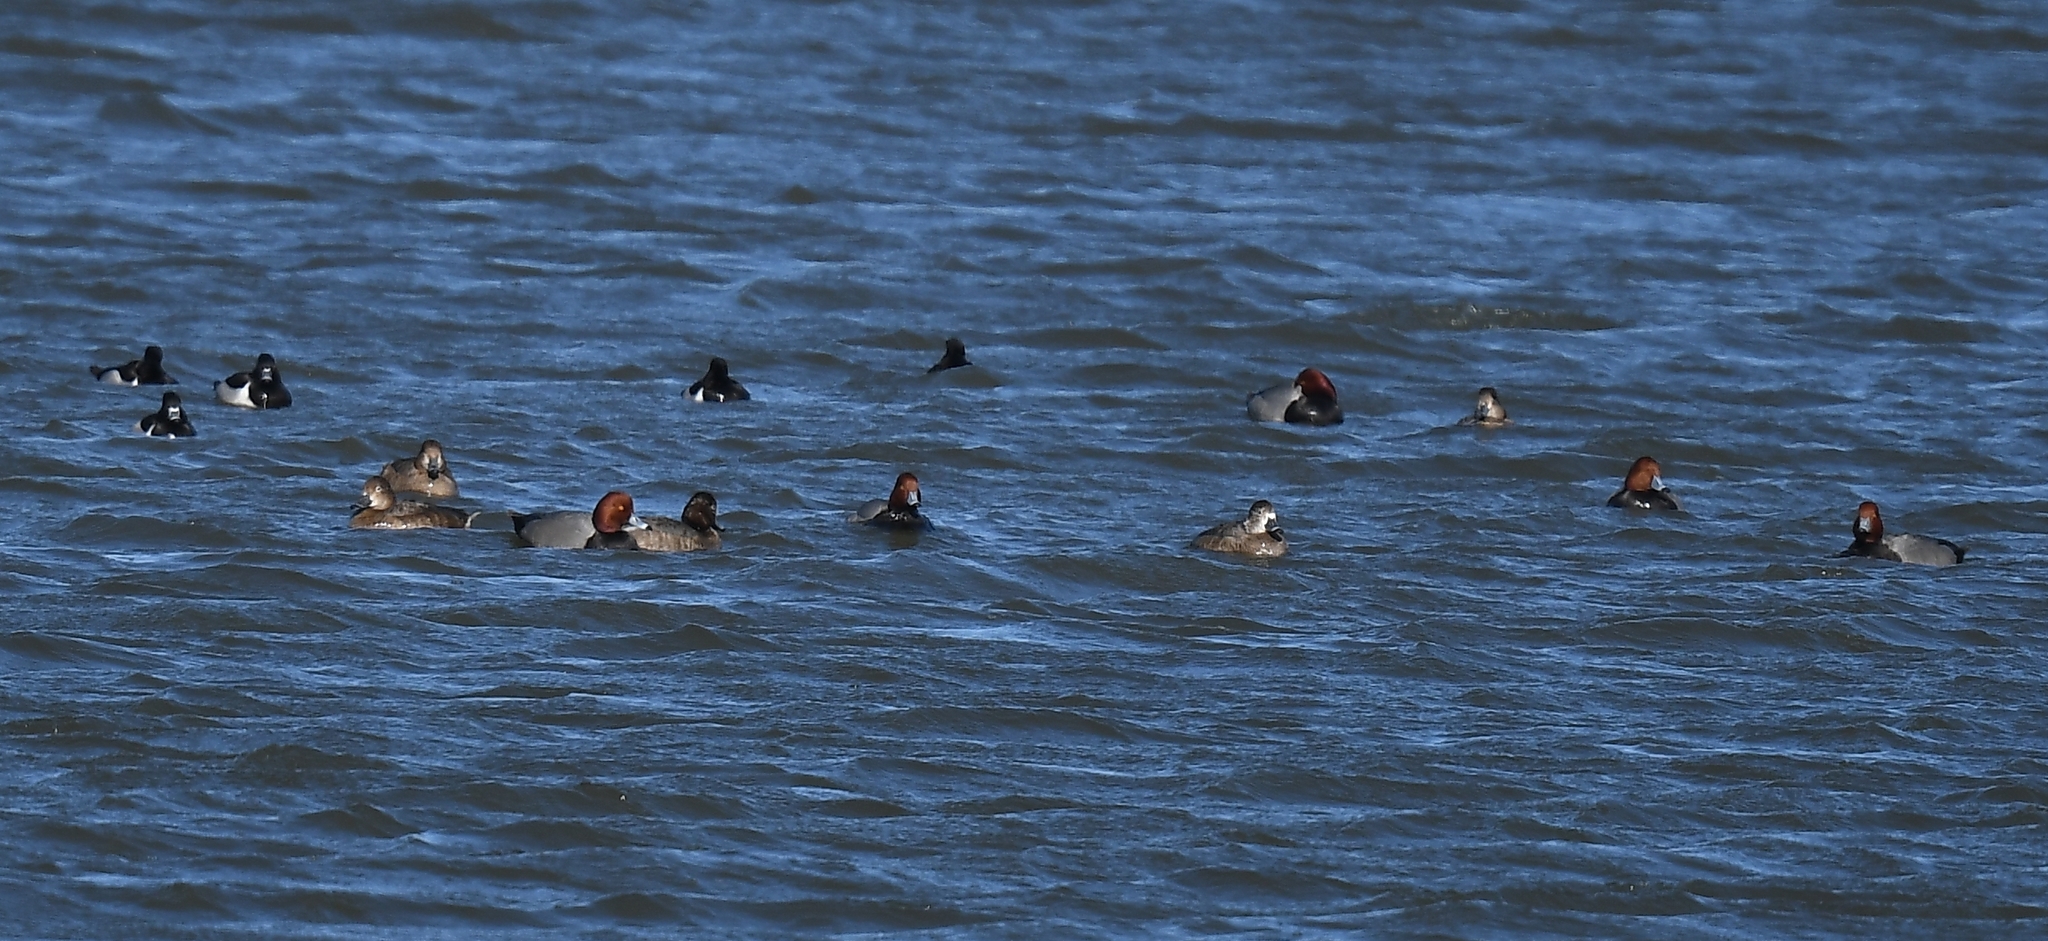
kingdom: Animalia
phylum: Chordata
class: Aves
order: Anseriformes
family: Anatidae
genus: Aythya
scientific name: Aythya americana
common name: Redhead
